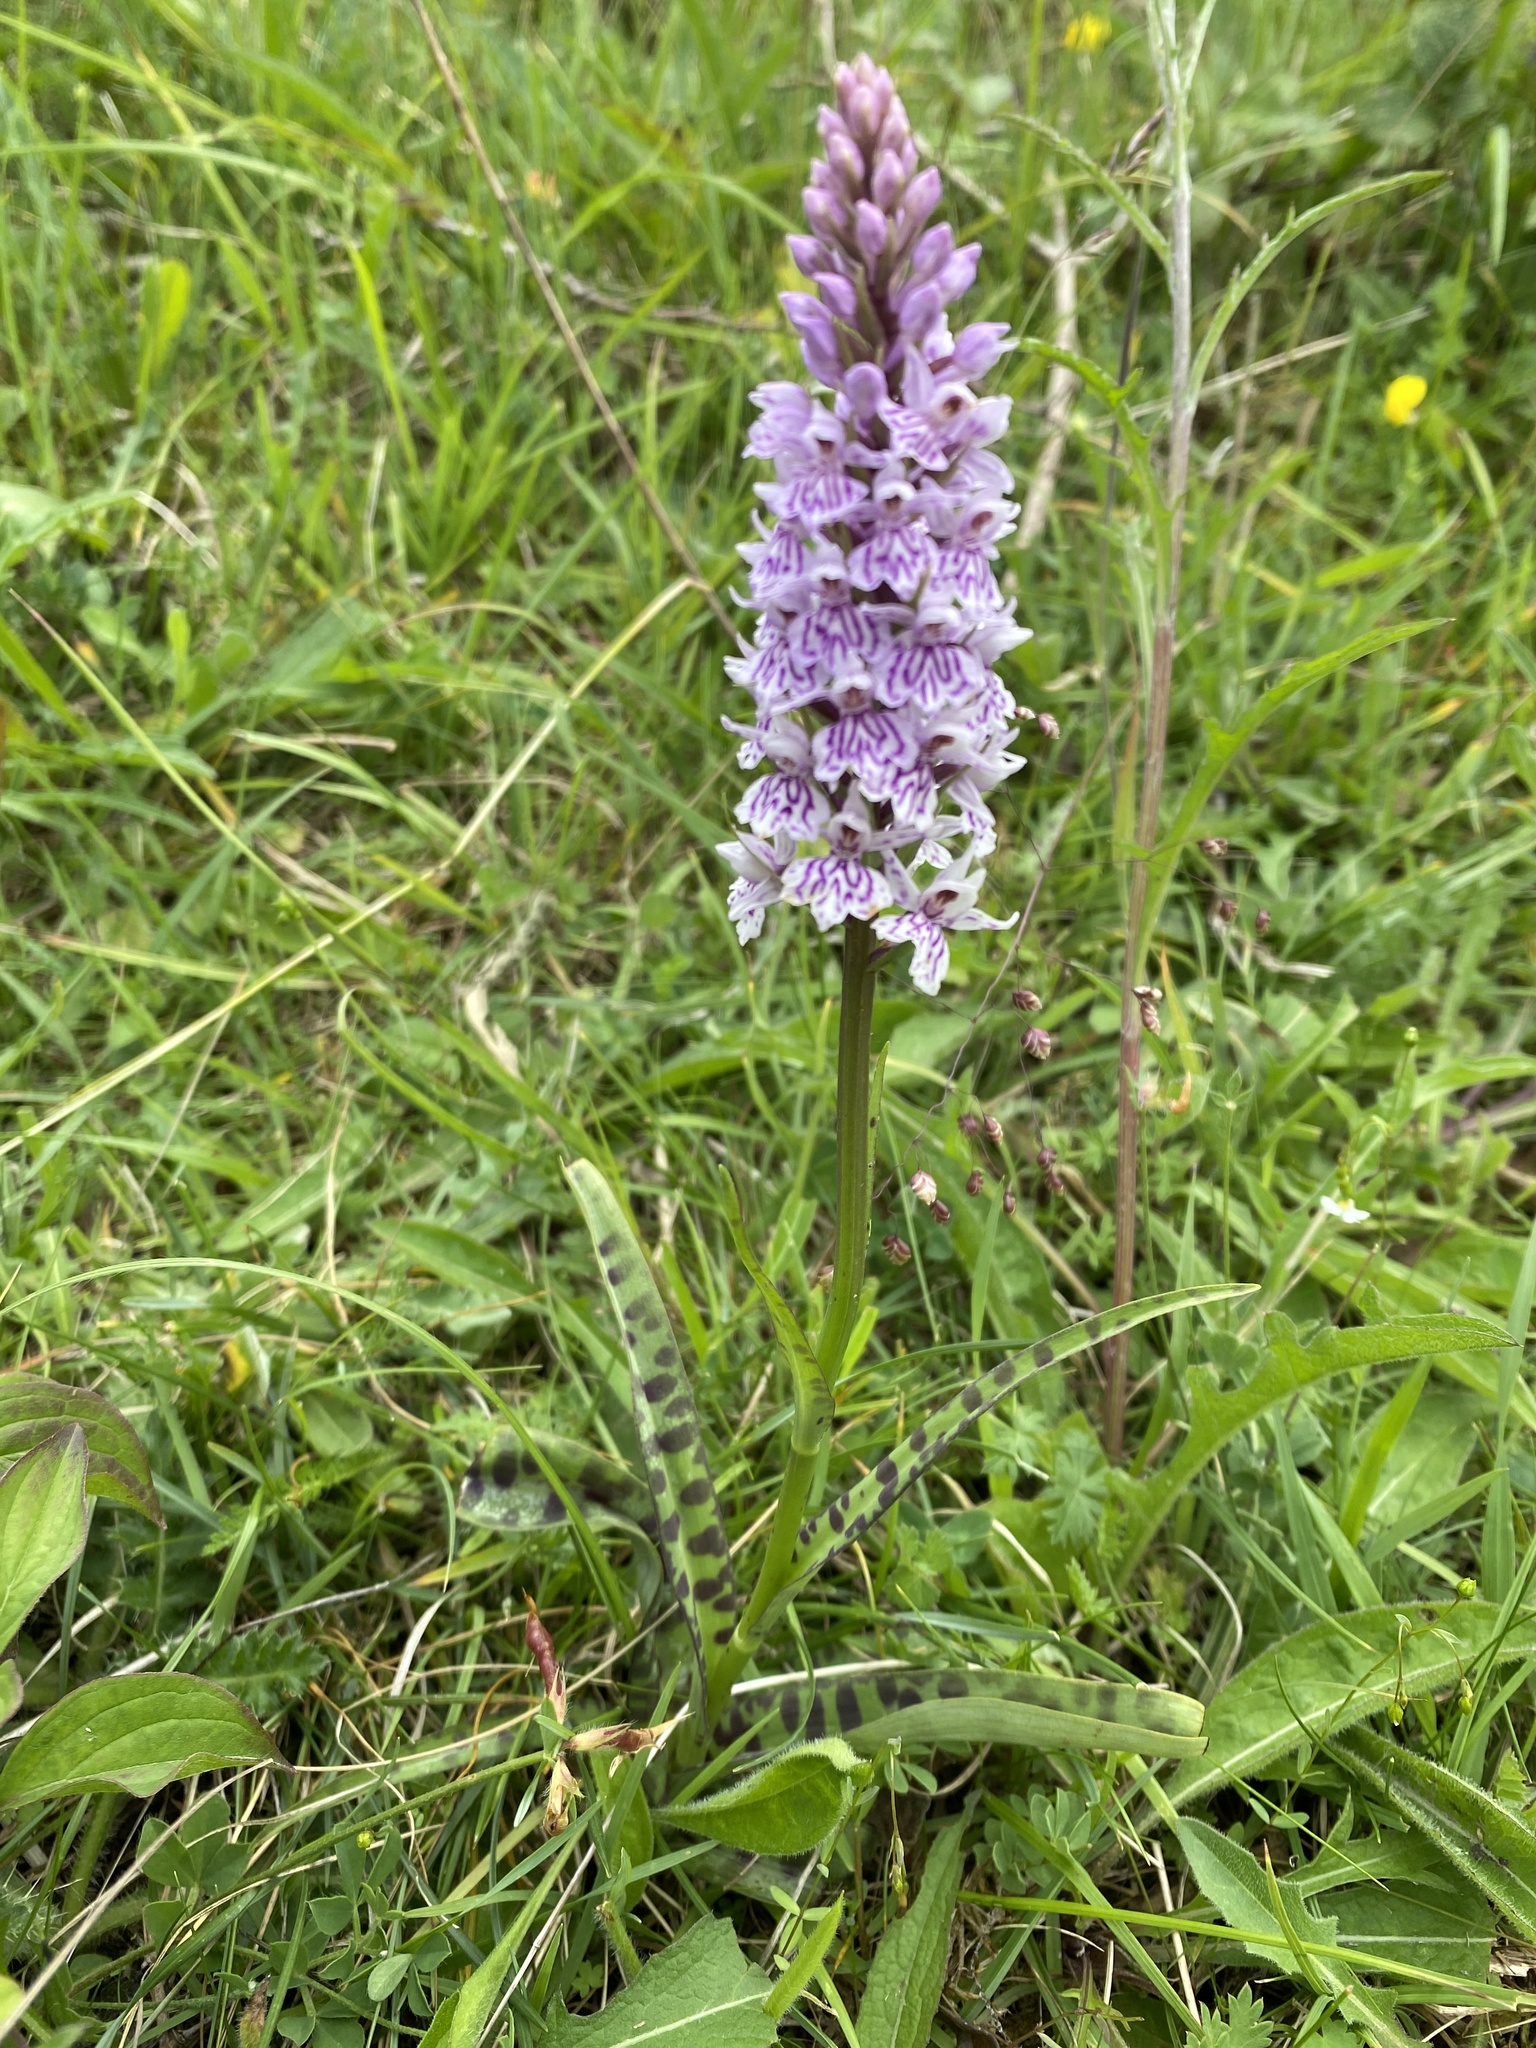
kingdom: Plantae
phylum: Tracheophyta
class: Liliopsida
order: Asparagales
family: Orchidaceae
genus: Dactylorhiza
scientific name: Dactylorhiza maculata
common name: Heath spotted-orchid
